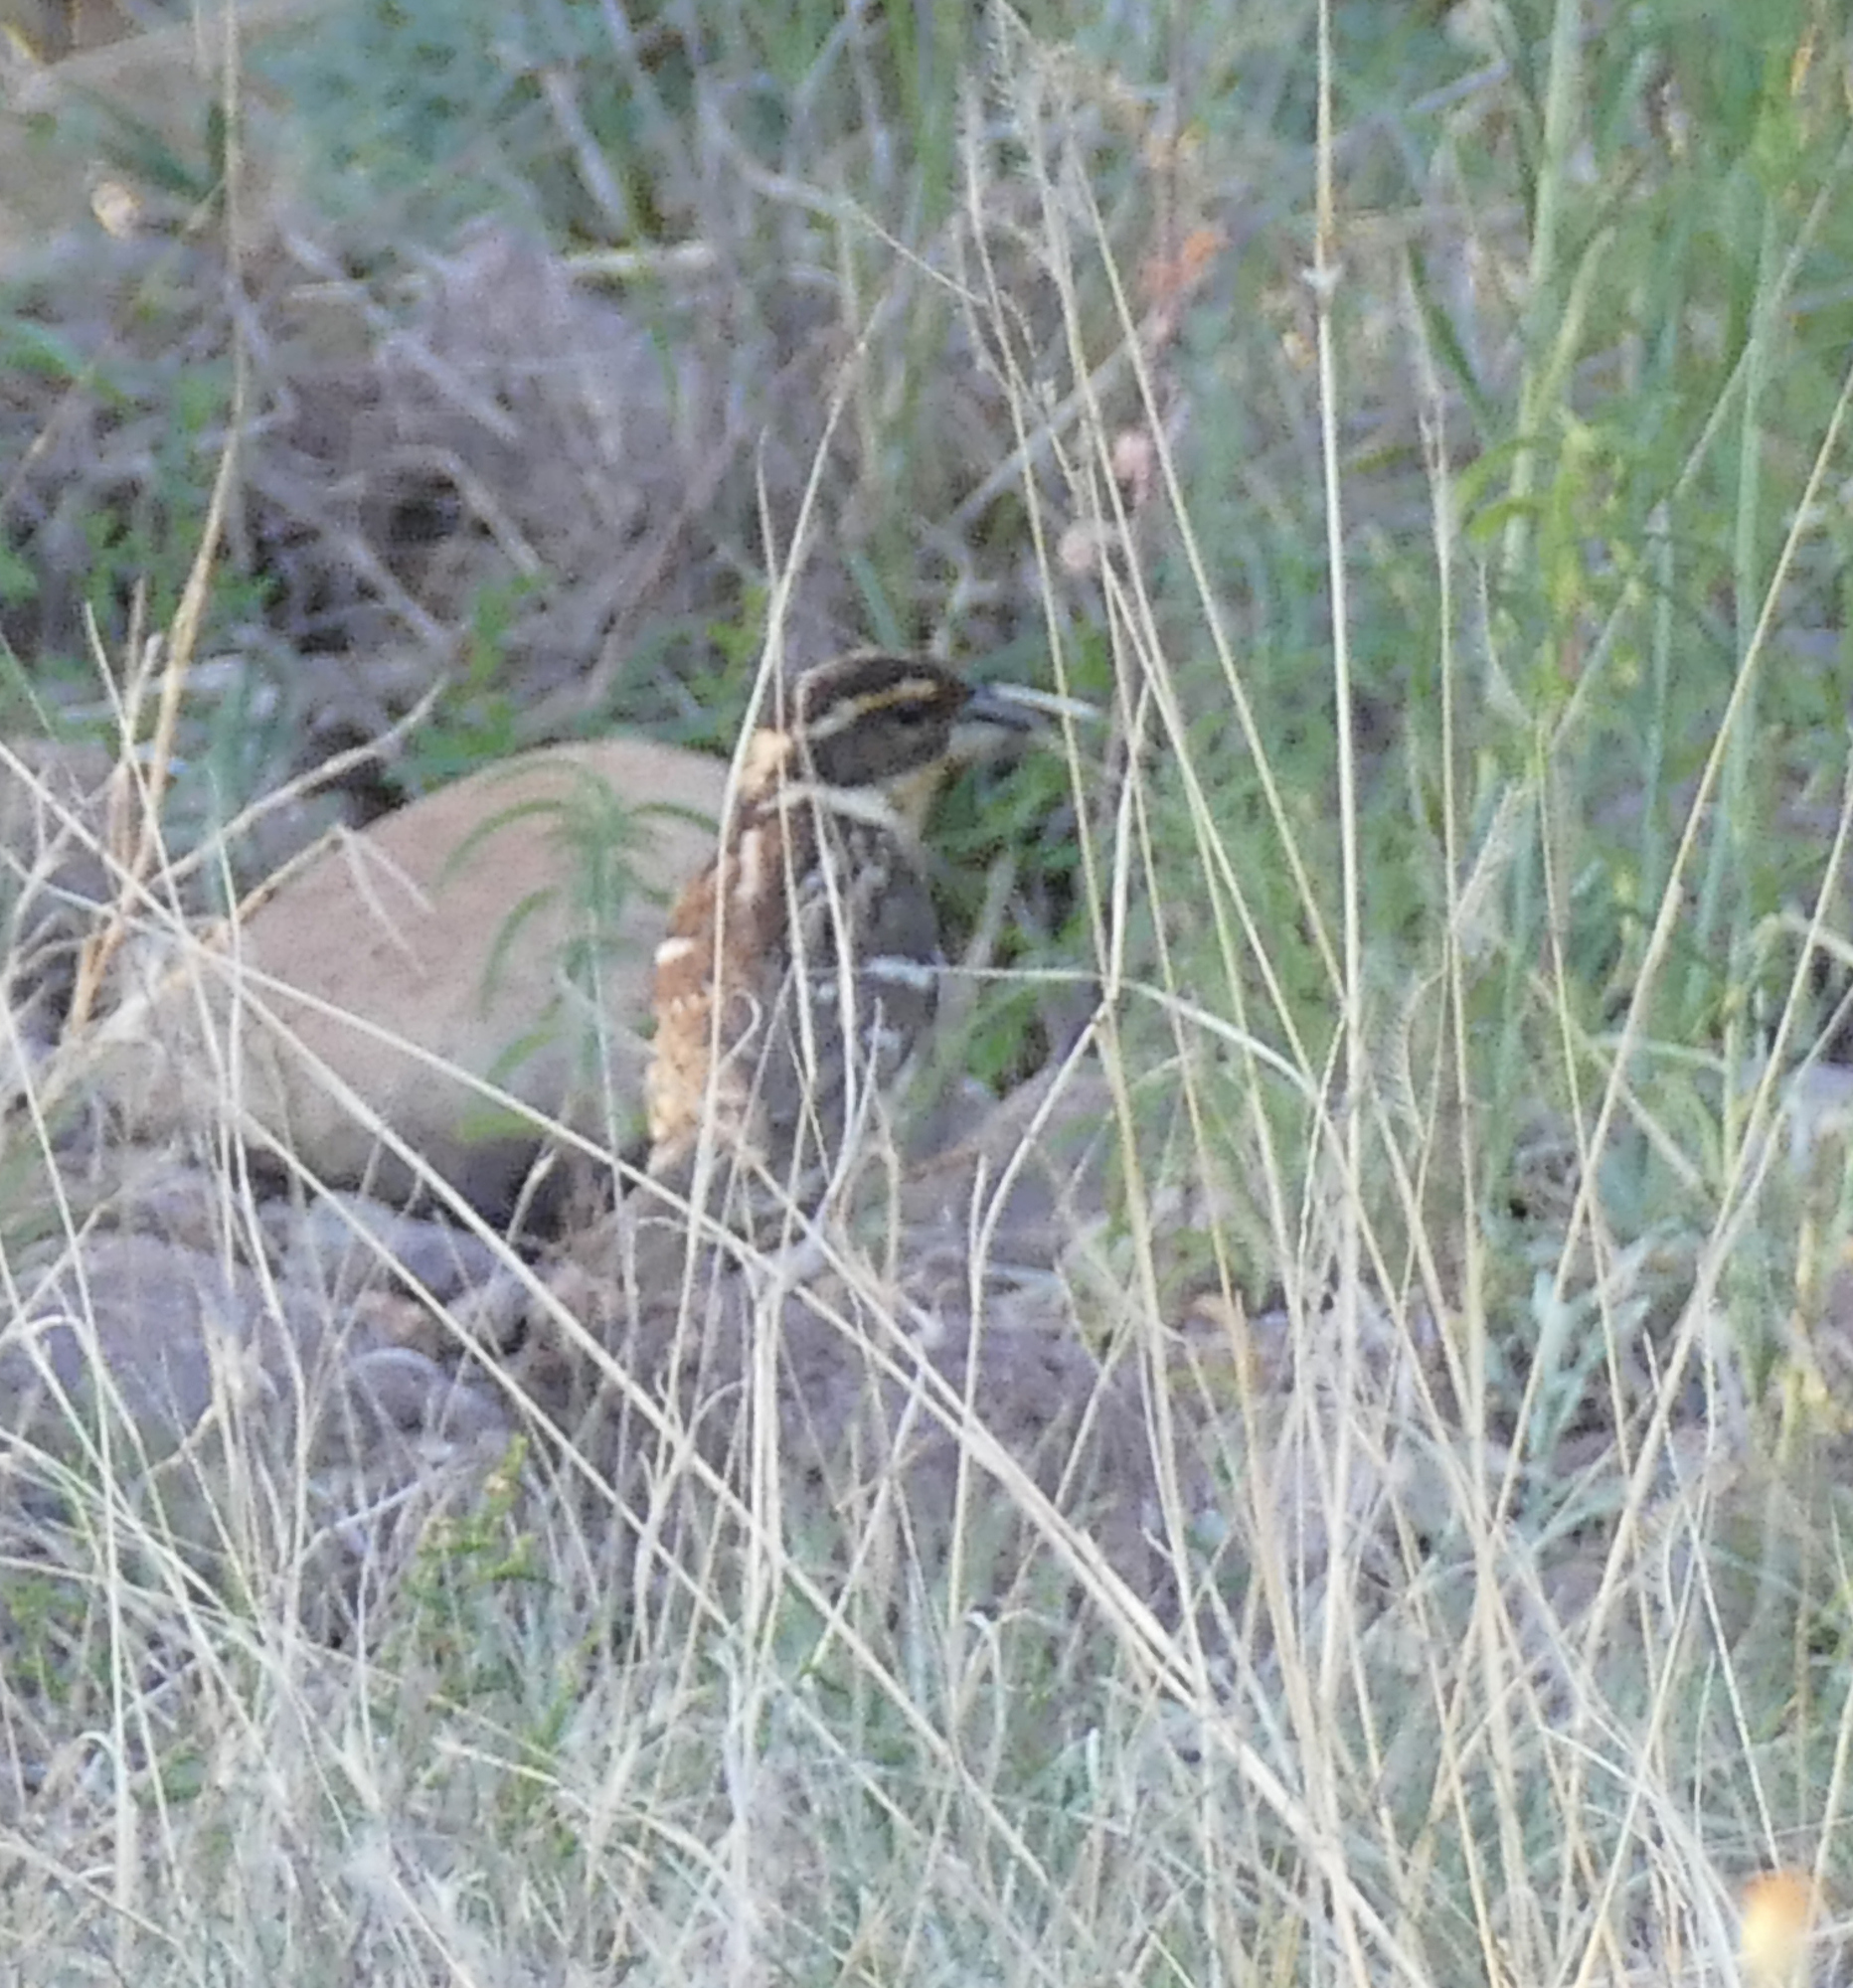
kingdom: Animalia
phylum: Chordata
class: Aves
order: Passeriformes
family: Cardinalidae
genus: Pheucticus
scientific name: Pheucticus melanocephalus
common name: Black-headed grosbeak
